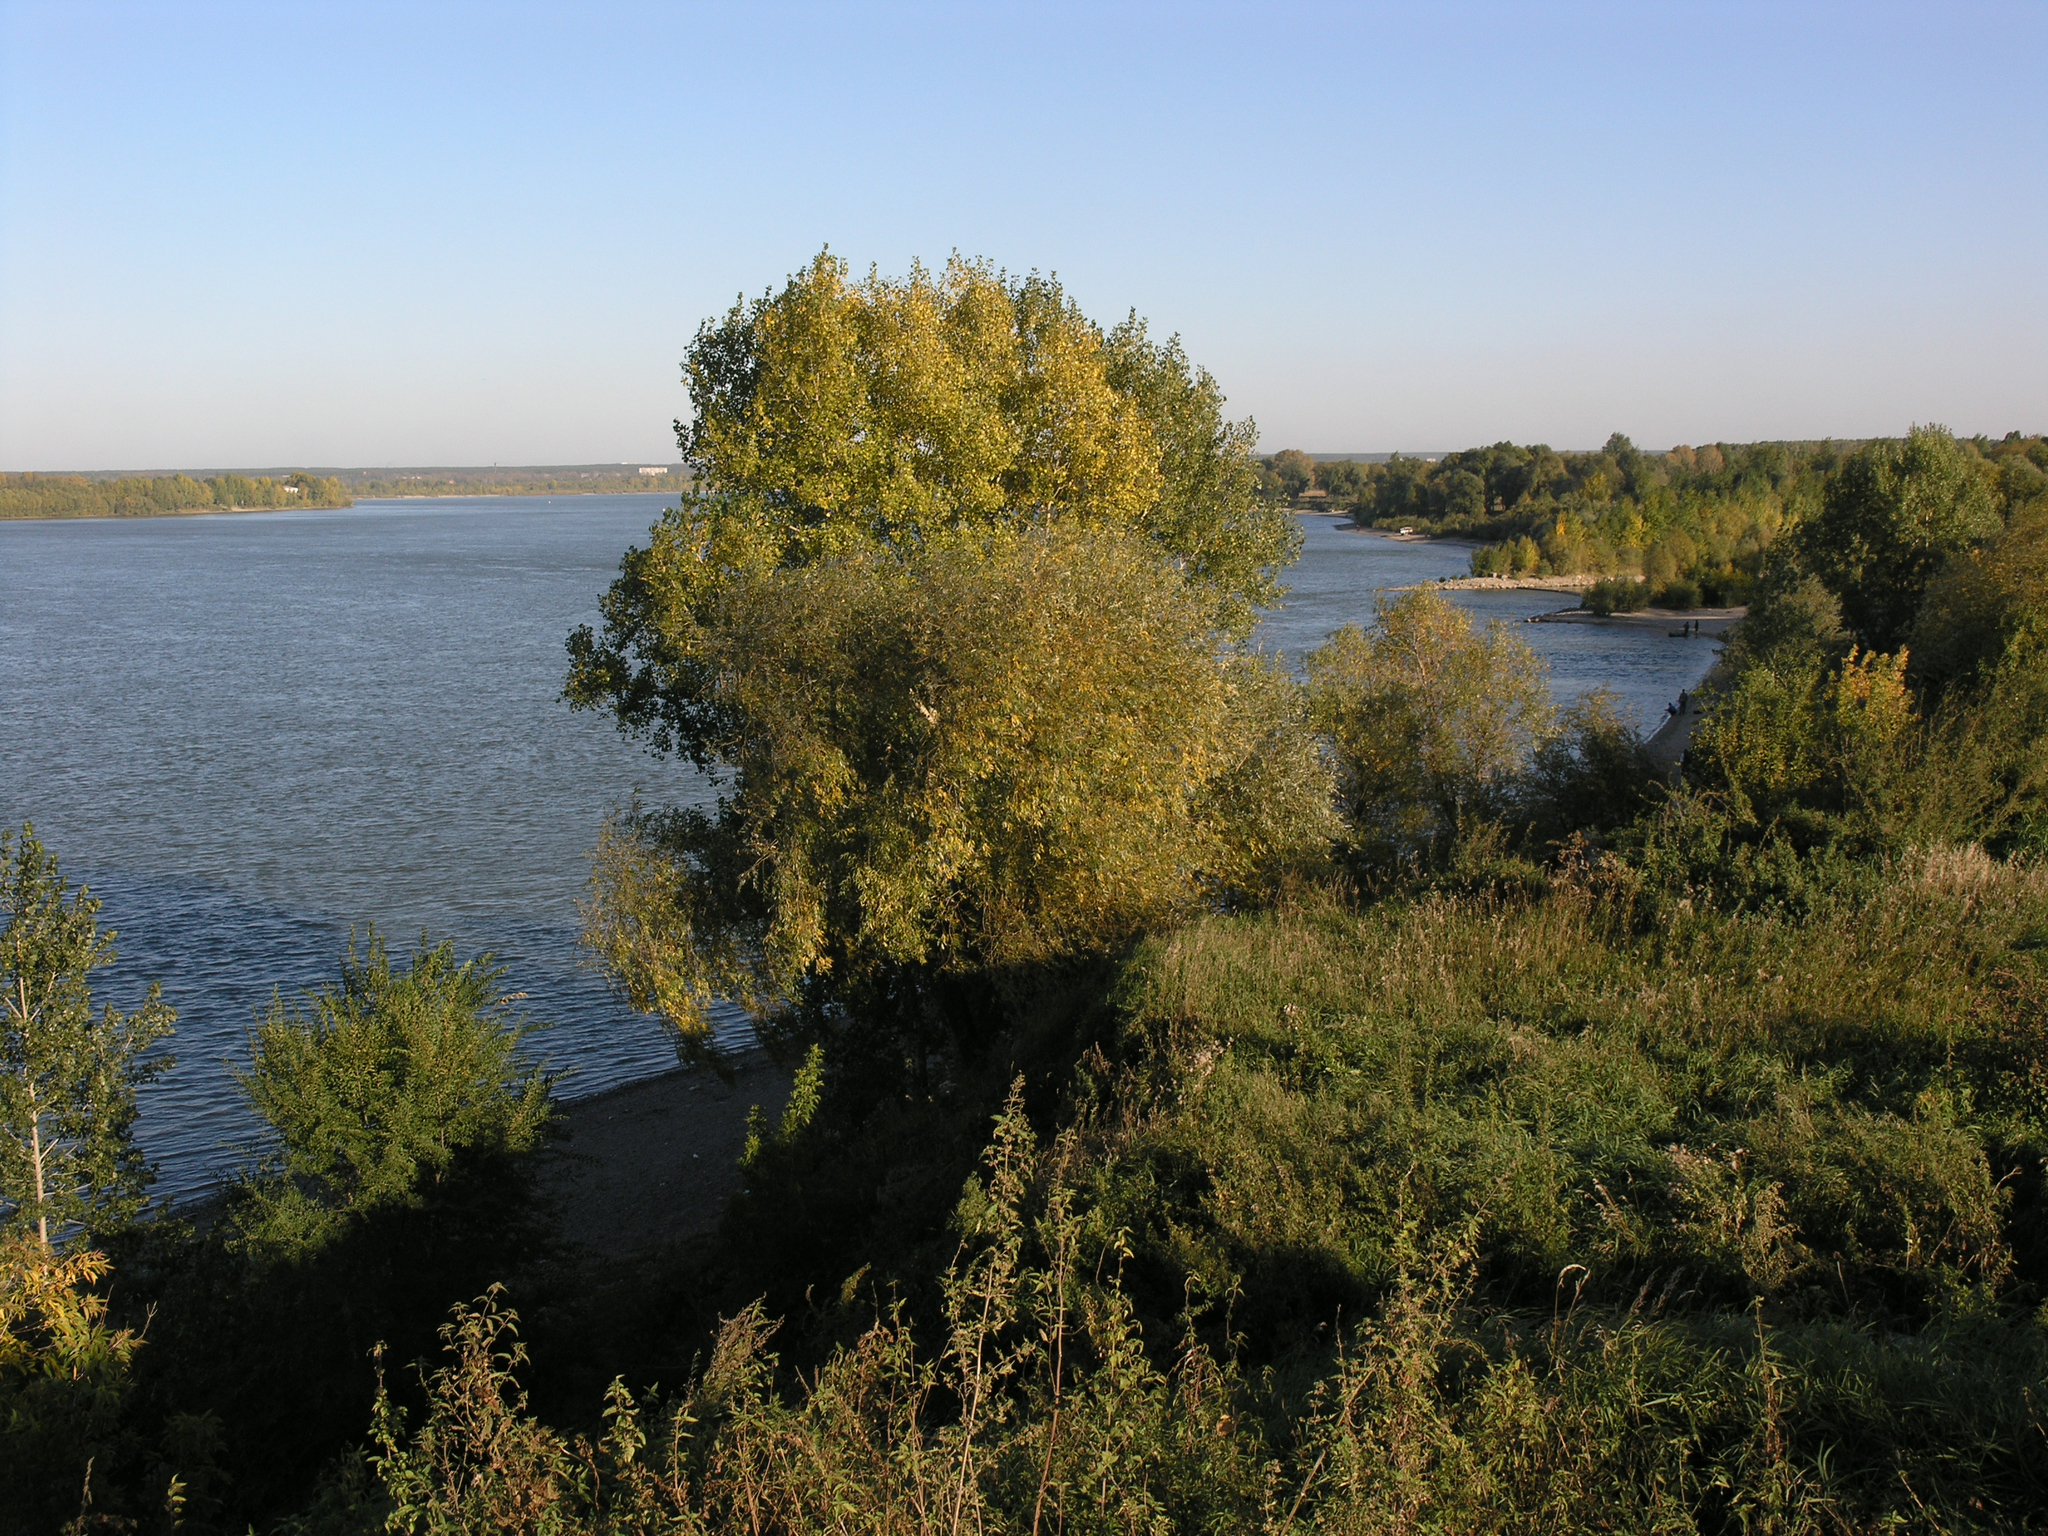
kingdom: Plantae
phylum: Tracheophyta
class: Magnoliopsida
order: Malpighiales
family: Salicaceae
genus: Populus
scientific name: Populus nigra
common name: Black poplar
